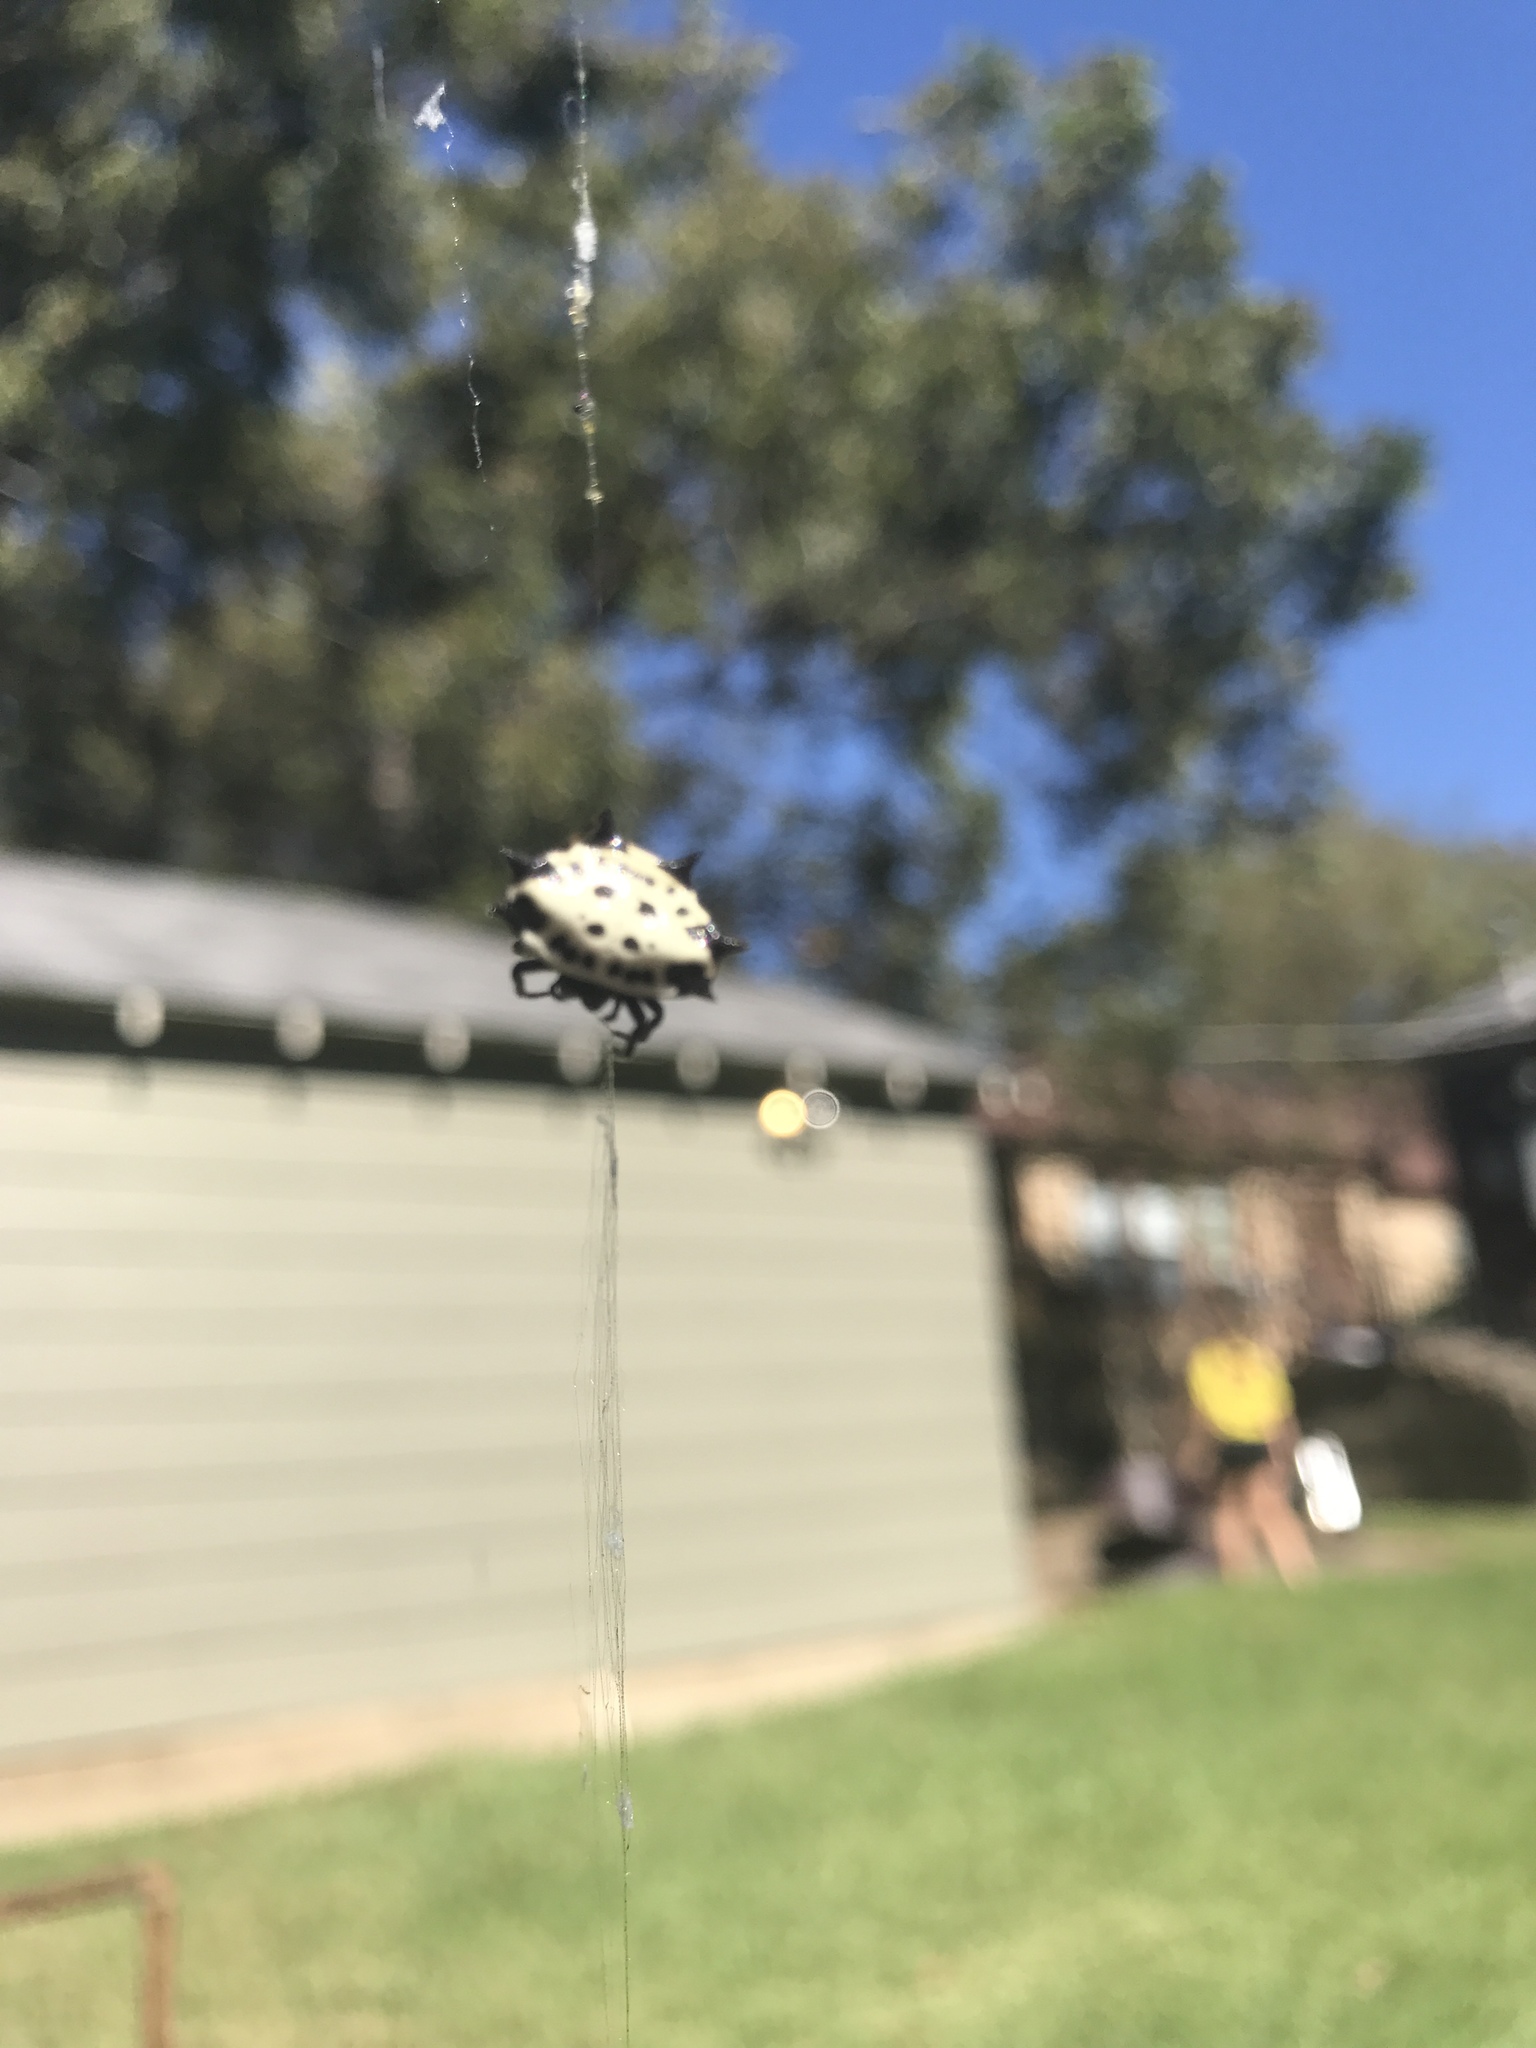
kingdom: Animalia
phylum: Arthropoda
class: Arachnida
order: Araneae
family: Araneidae
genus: Gasteracantha
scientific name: Gasteracantha cancriformis
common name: Orb weavers
